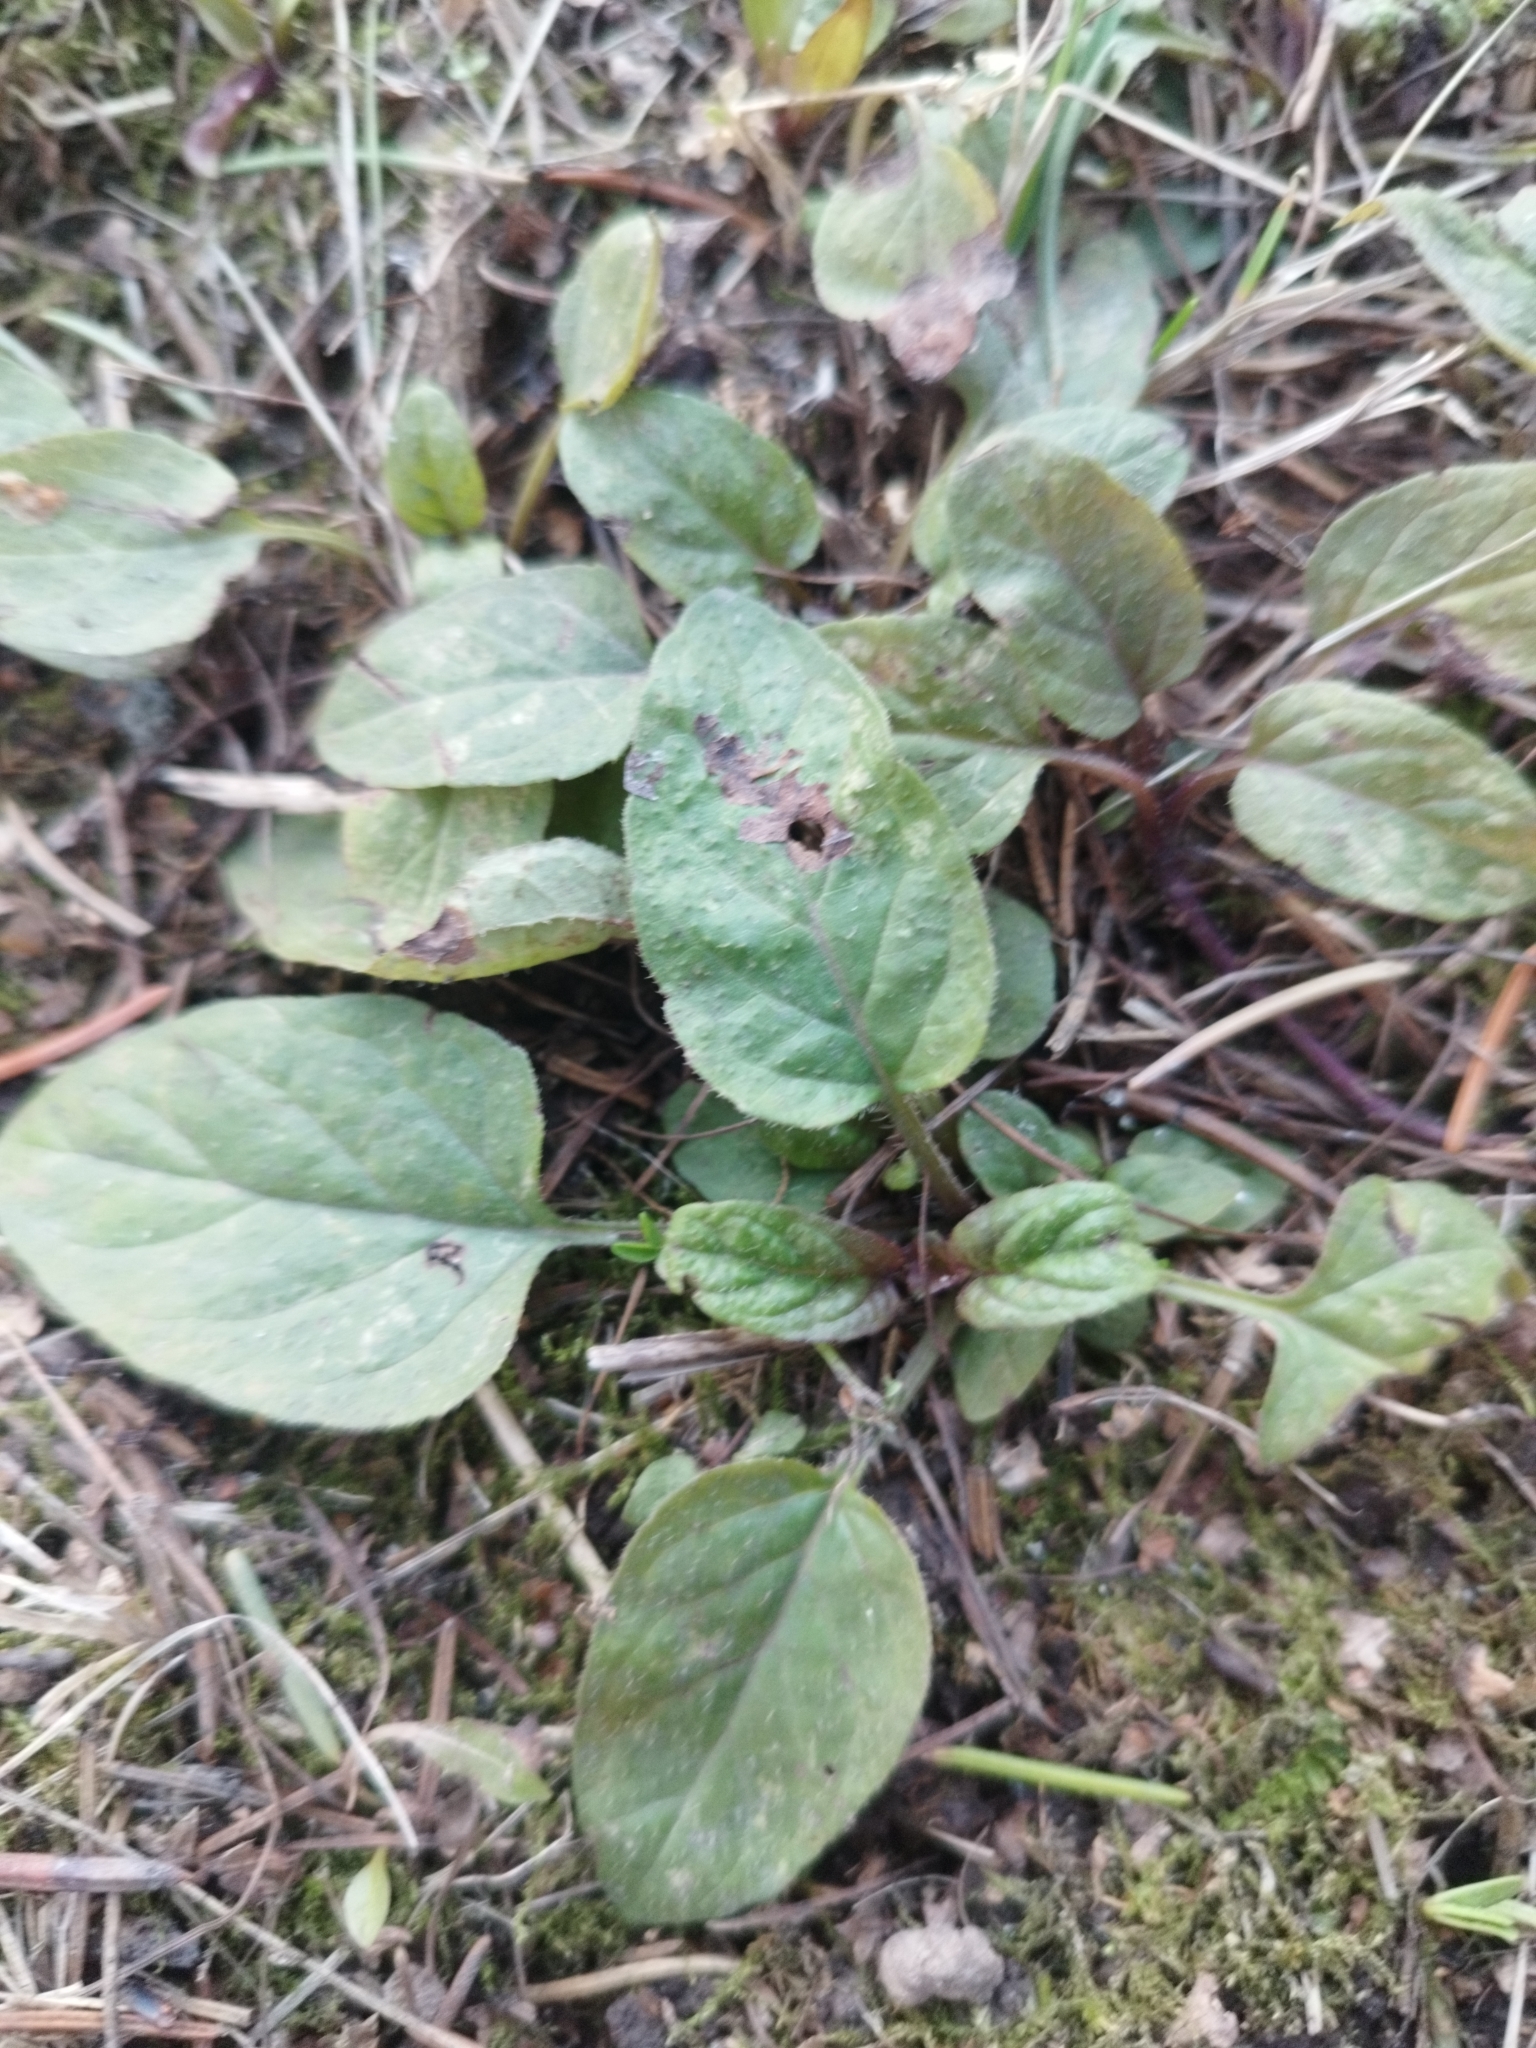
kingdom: Plantae
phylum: Tracheophyta
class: Magnoliopsida
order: Lamiales
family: Lamiaceae
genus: Prunella
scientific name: Prunella vulgaris
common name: Heal-all
